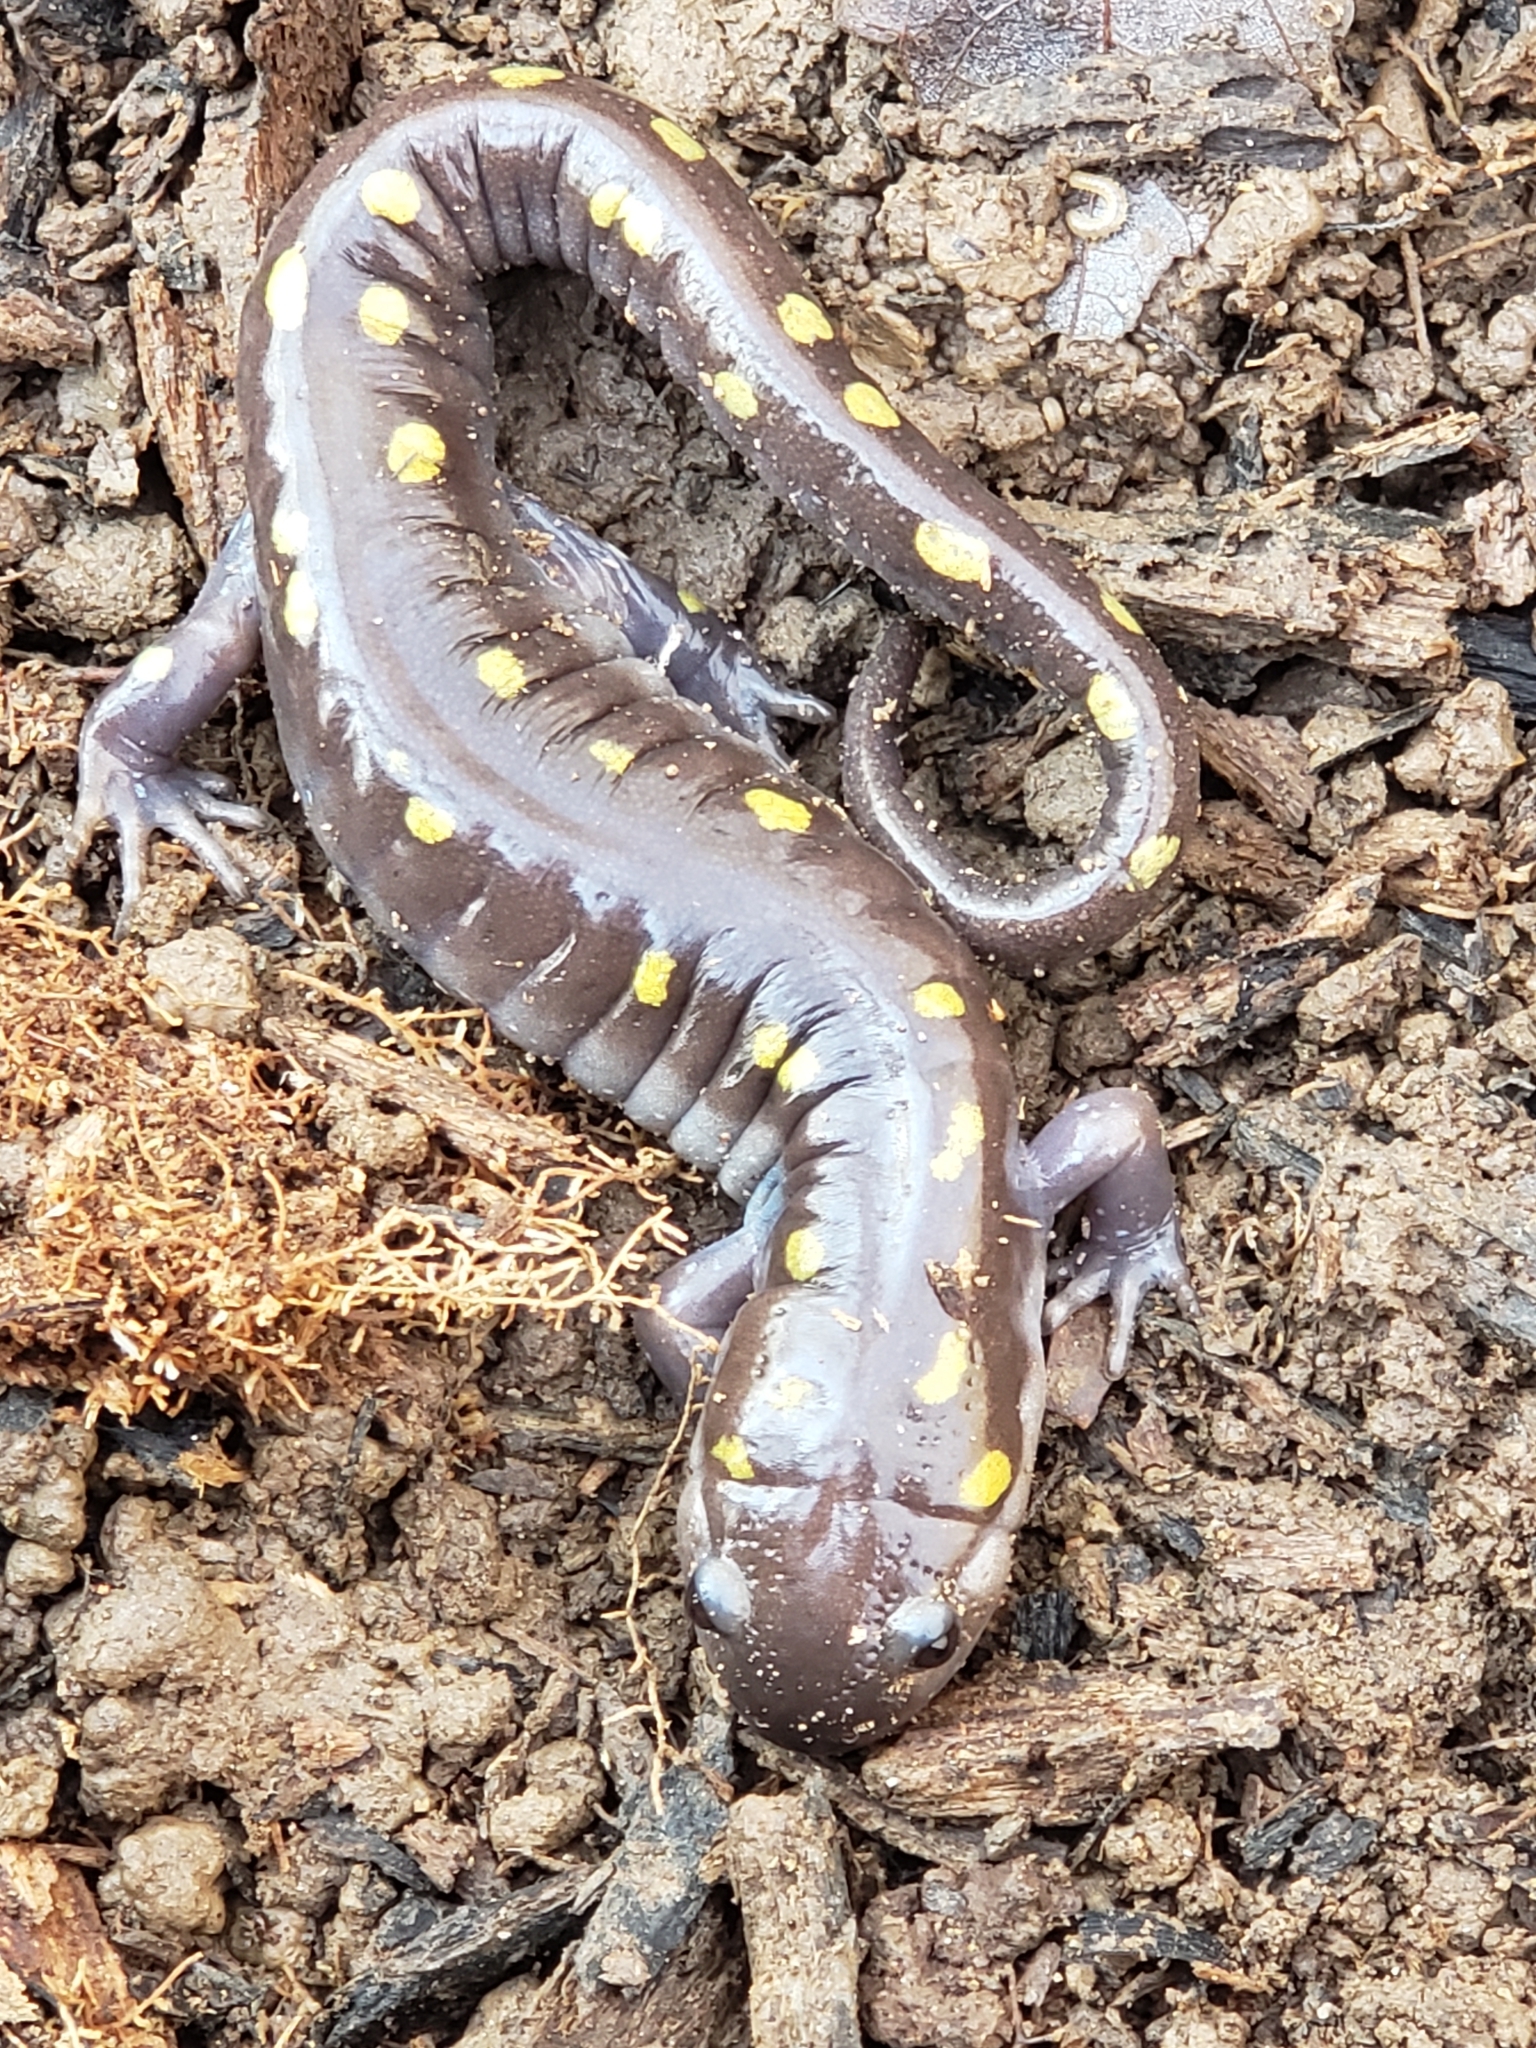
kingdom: Animalia
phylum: Chordata
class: Amphibia
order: Caudata
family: Ambystomatidae
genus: Ambystoma
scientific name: Ambystoma maculatum
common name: Spotted salamander
